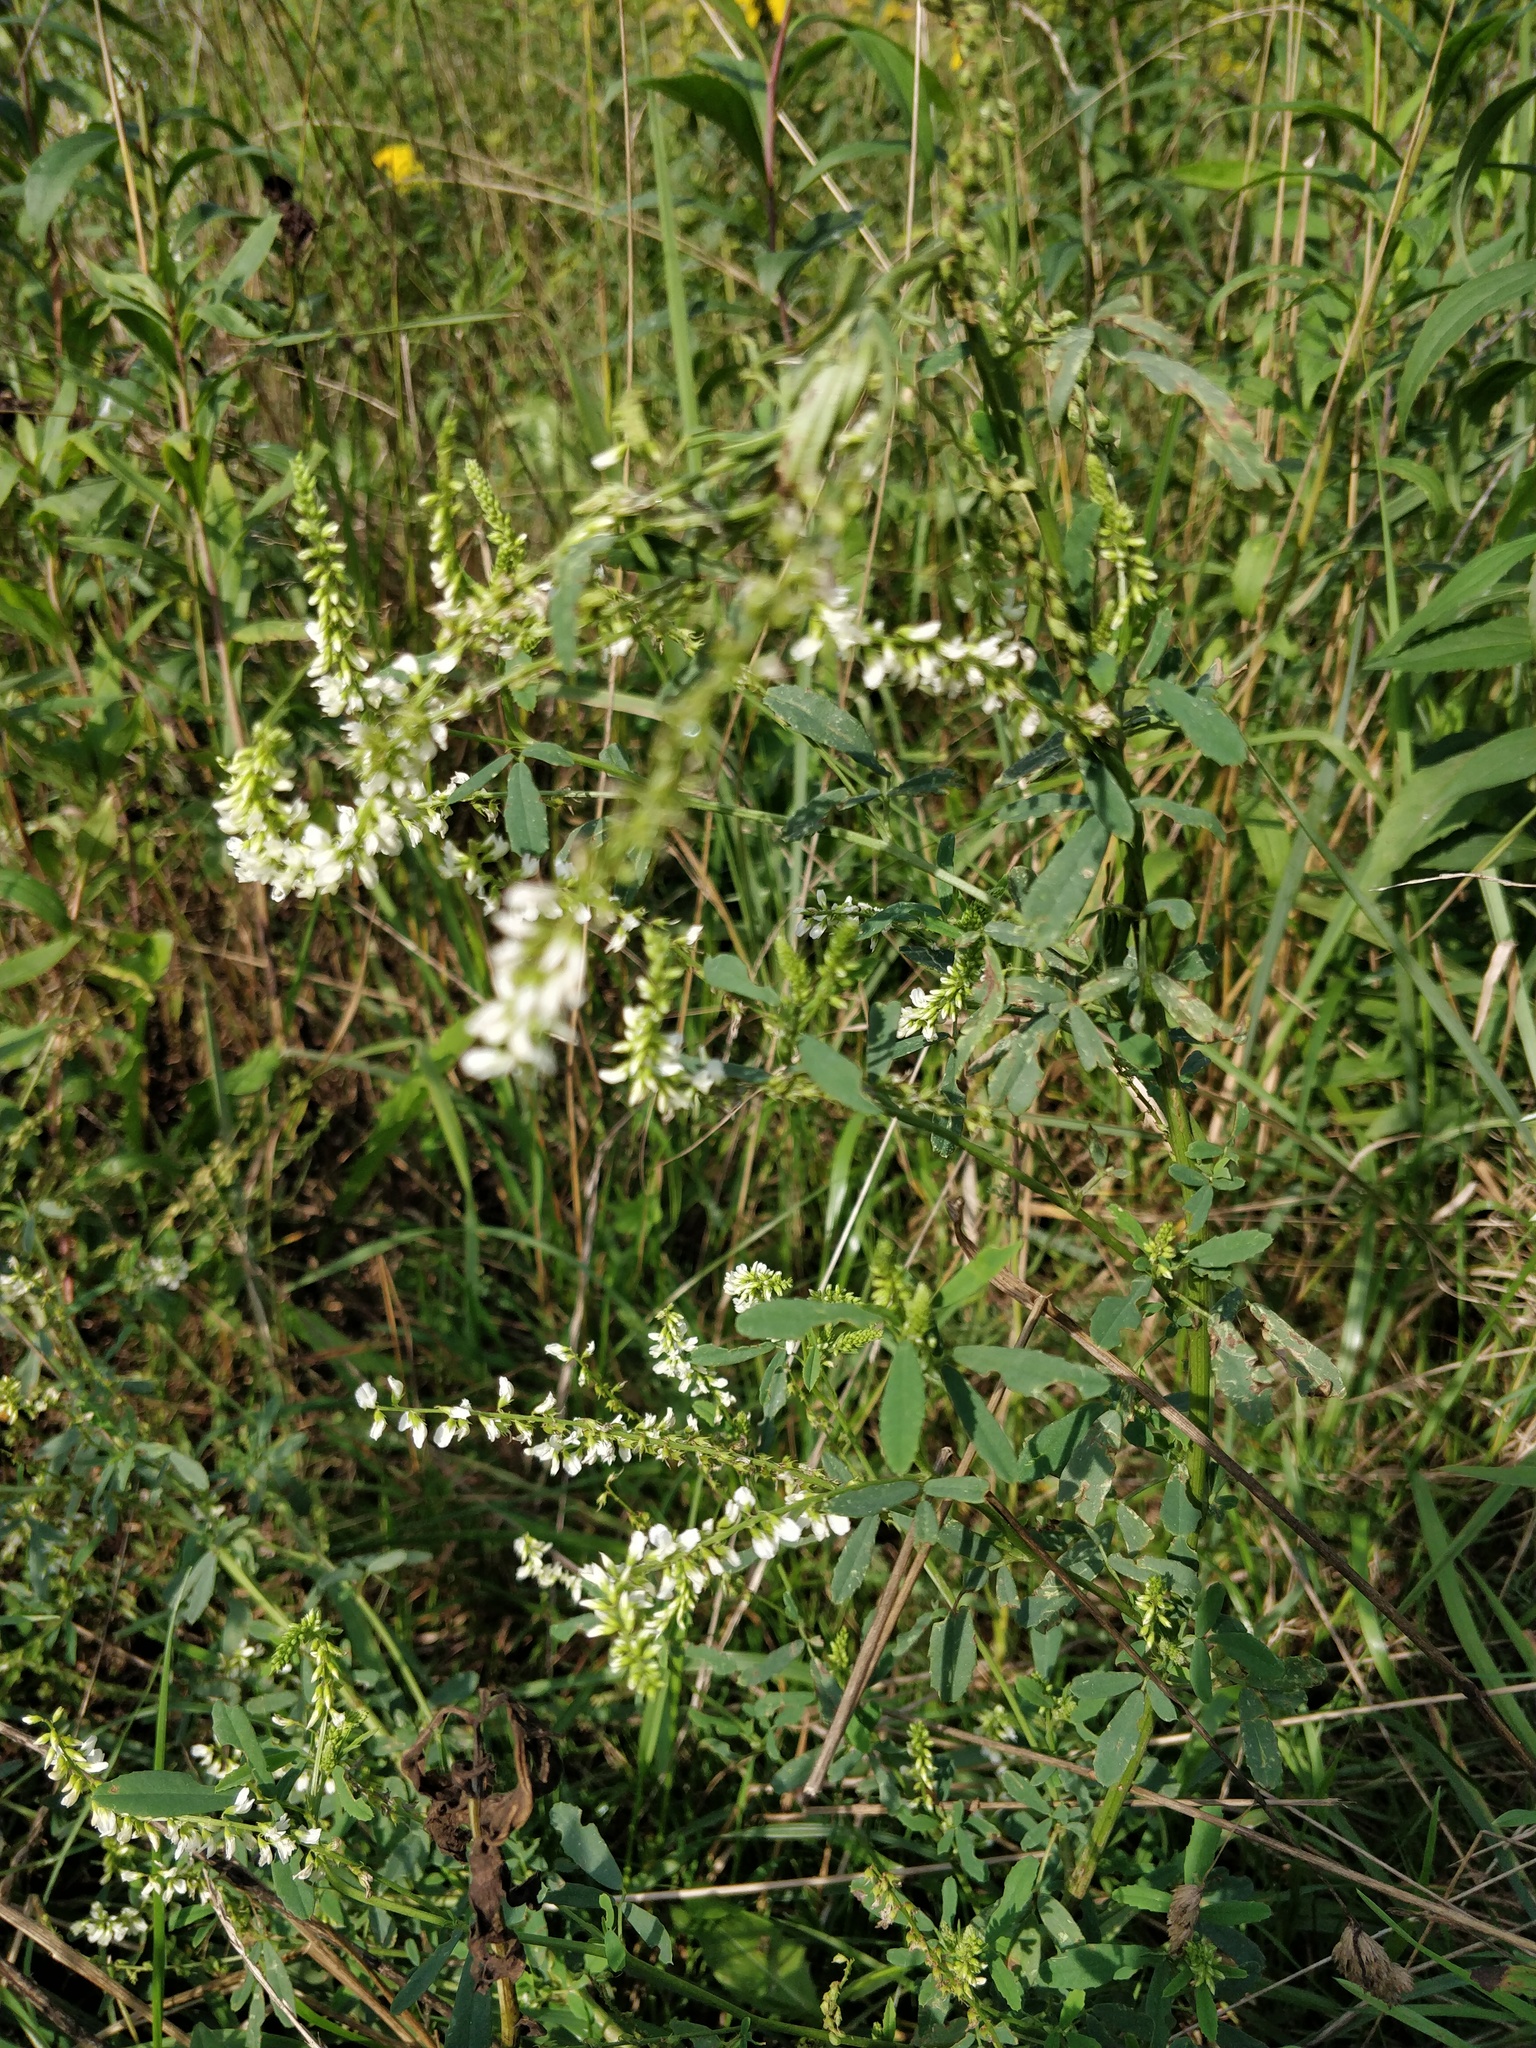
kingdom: Plantae
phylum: Tracheophyta
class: Magnoliopsida
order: Fabales
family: Fabaceae
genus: Melilotus
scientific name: Melilotus albus
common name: White melilot
